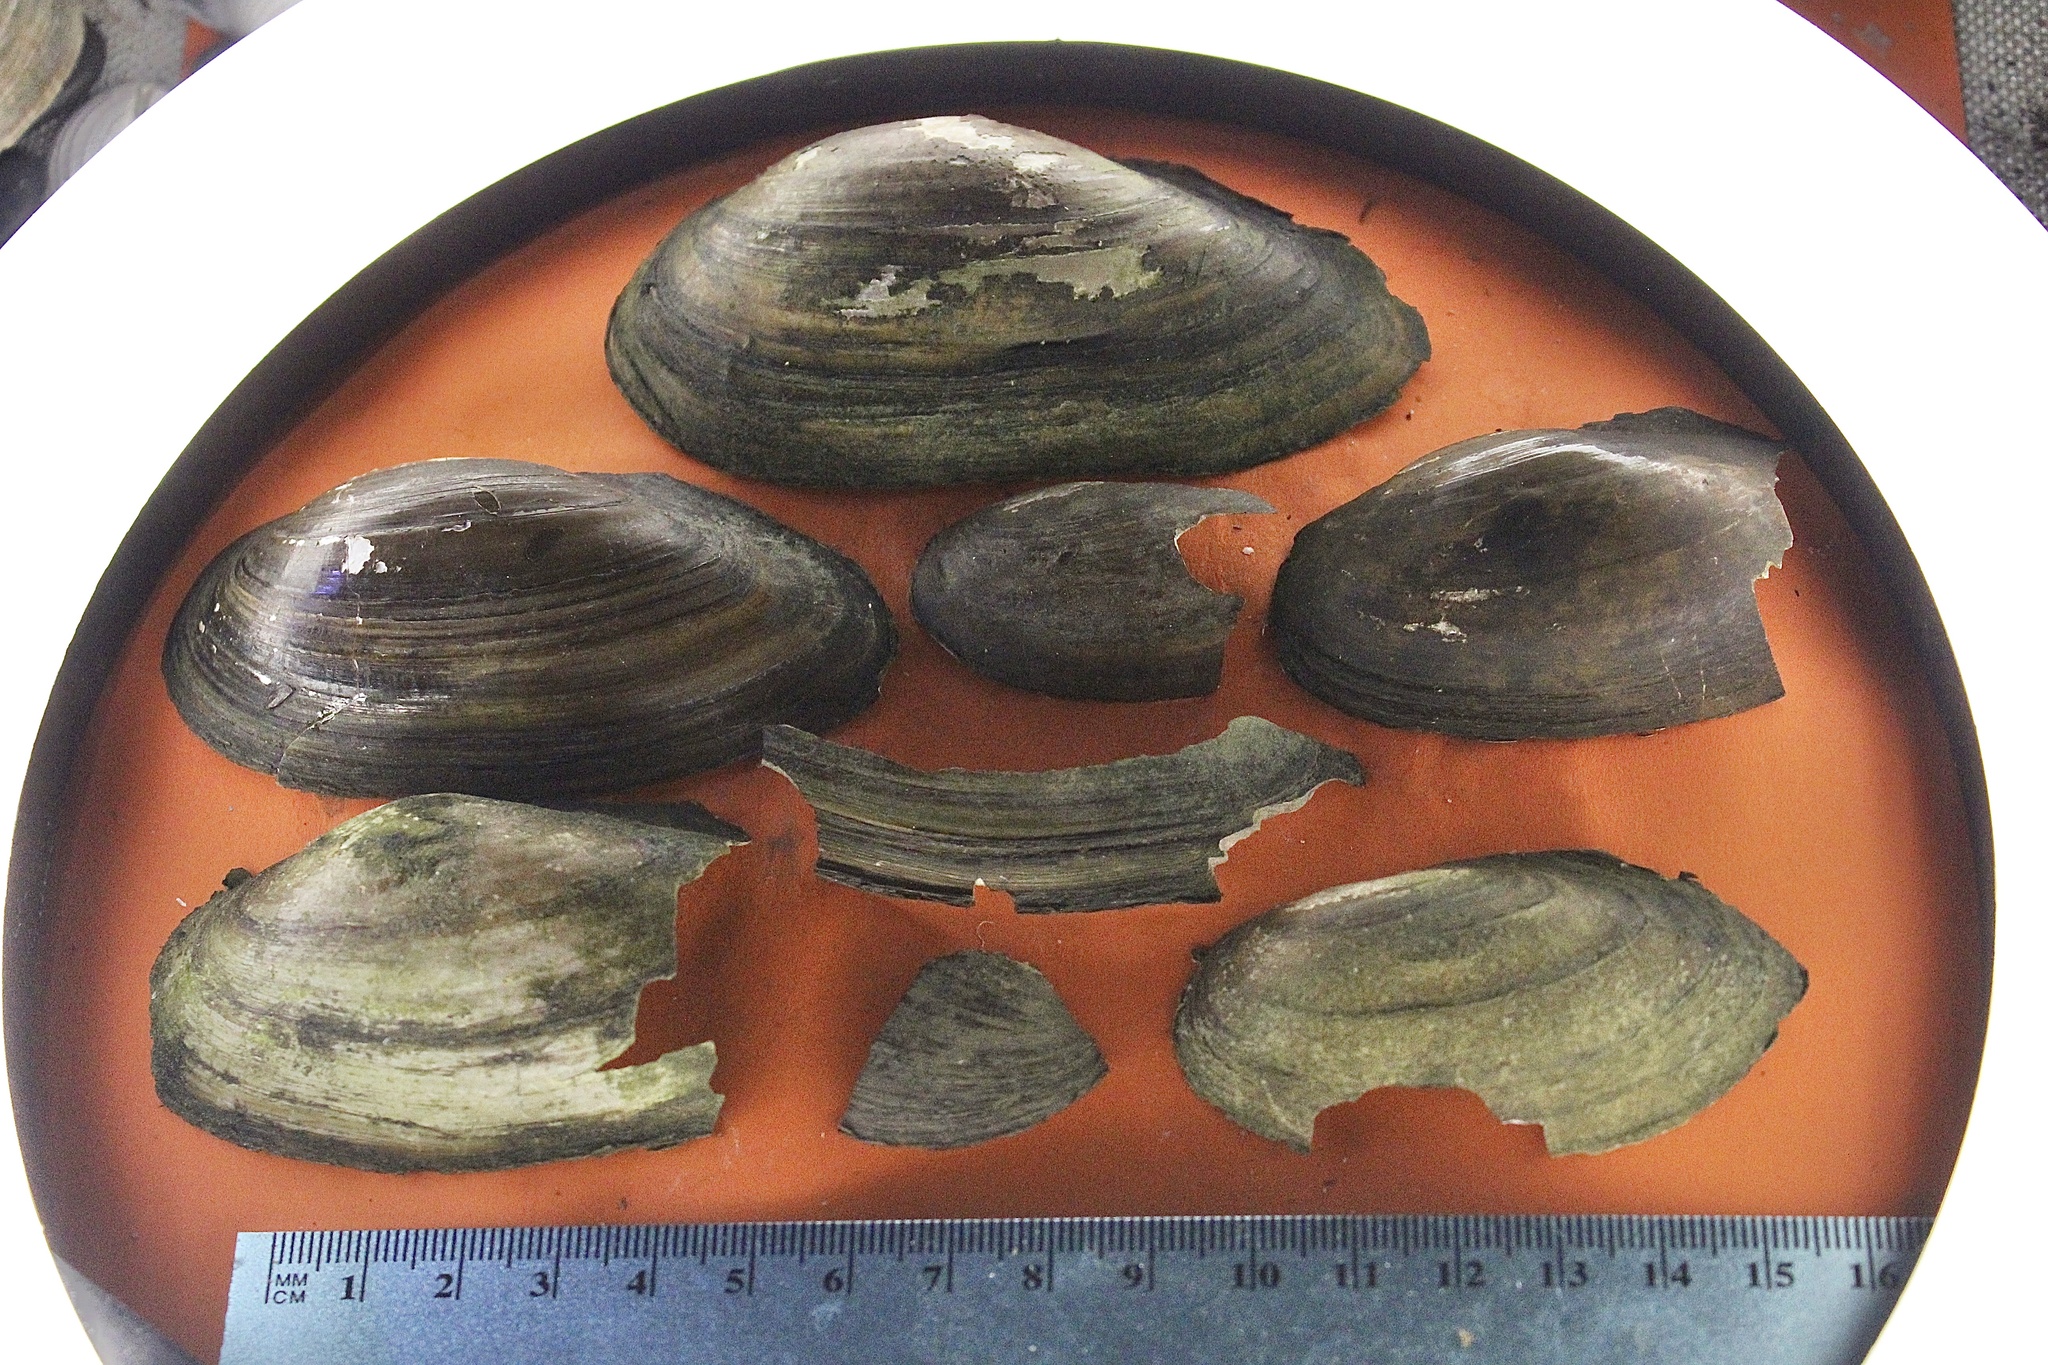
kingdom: Animalia
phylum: Mollusca
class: Bivalvia
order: Unionida
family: Unionidae
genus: Utterbackia
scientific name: Utterbackia imbecillis
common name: Paper pondshell
